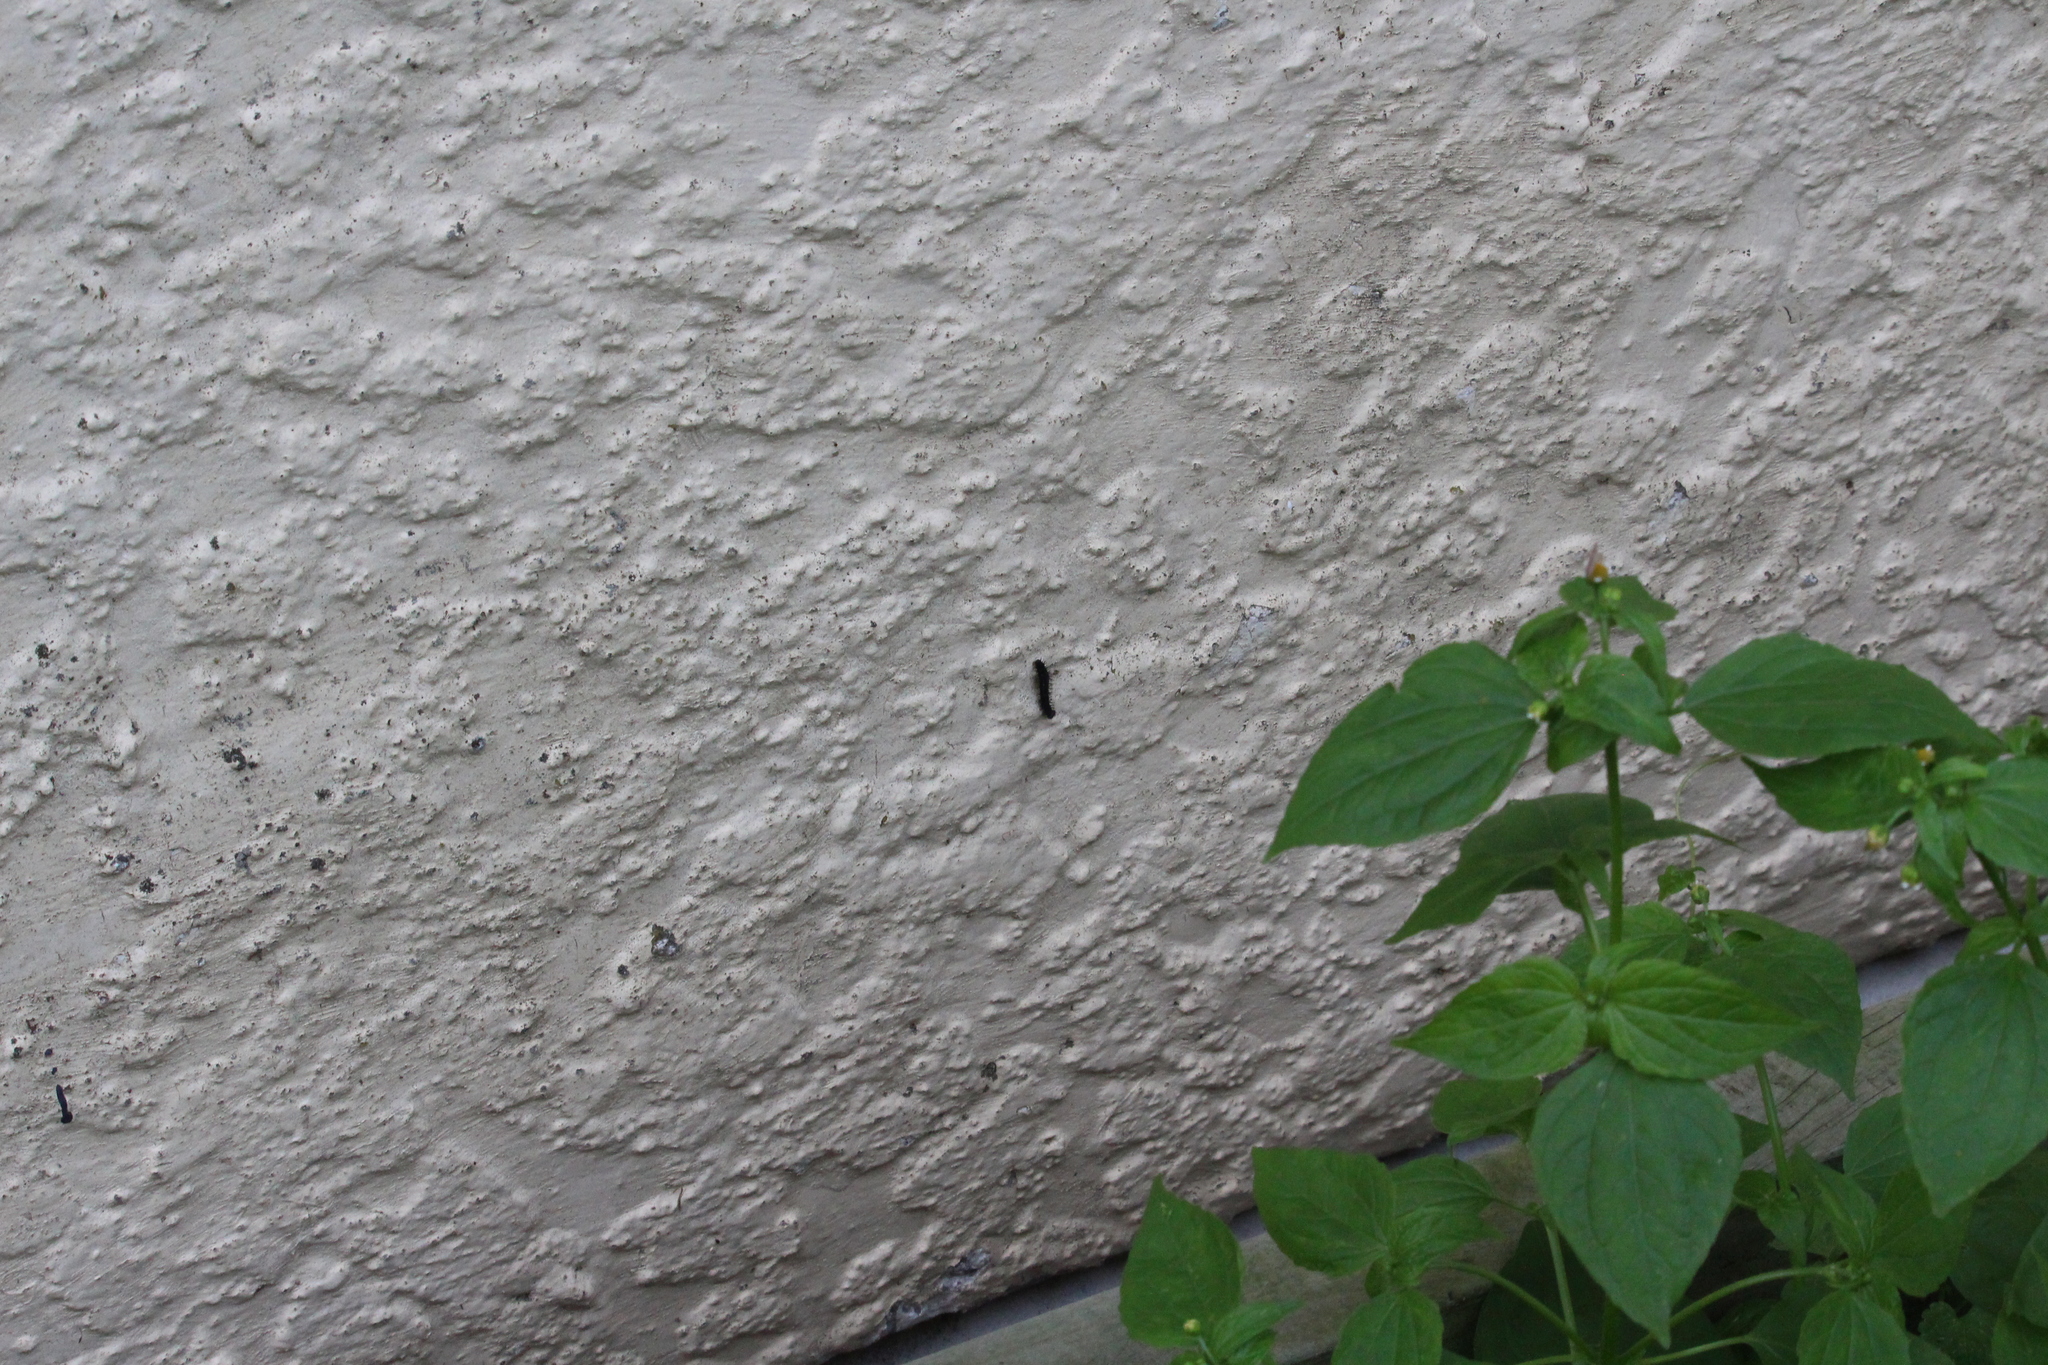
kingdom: Animalia
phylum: Arthropoda
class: Insecta
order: Lepidoptera
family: Nymphalidae
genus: Vanessa
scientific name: Vanessa itea
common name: Yellow admiral
